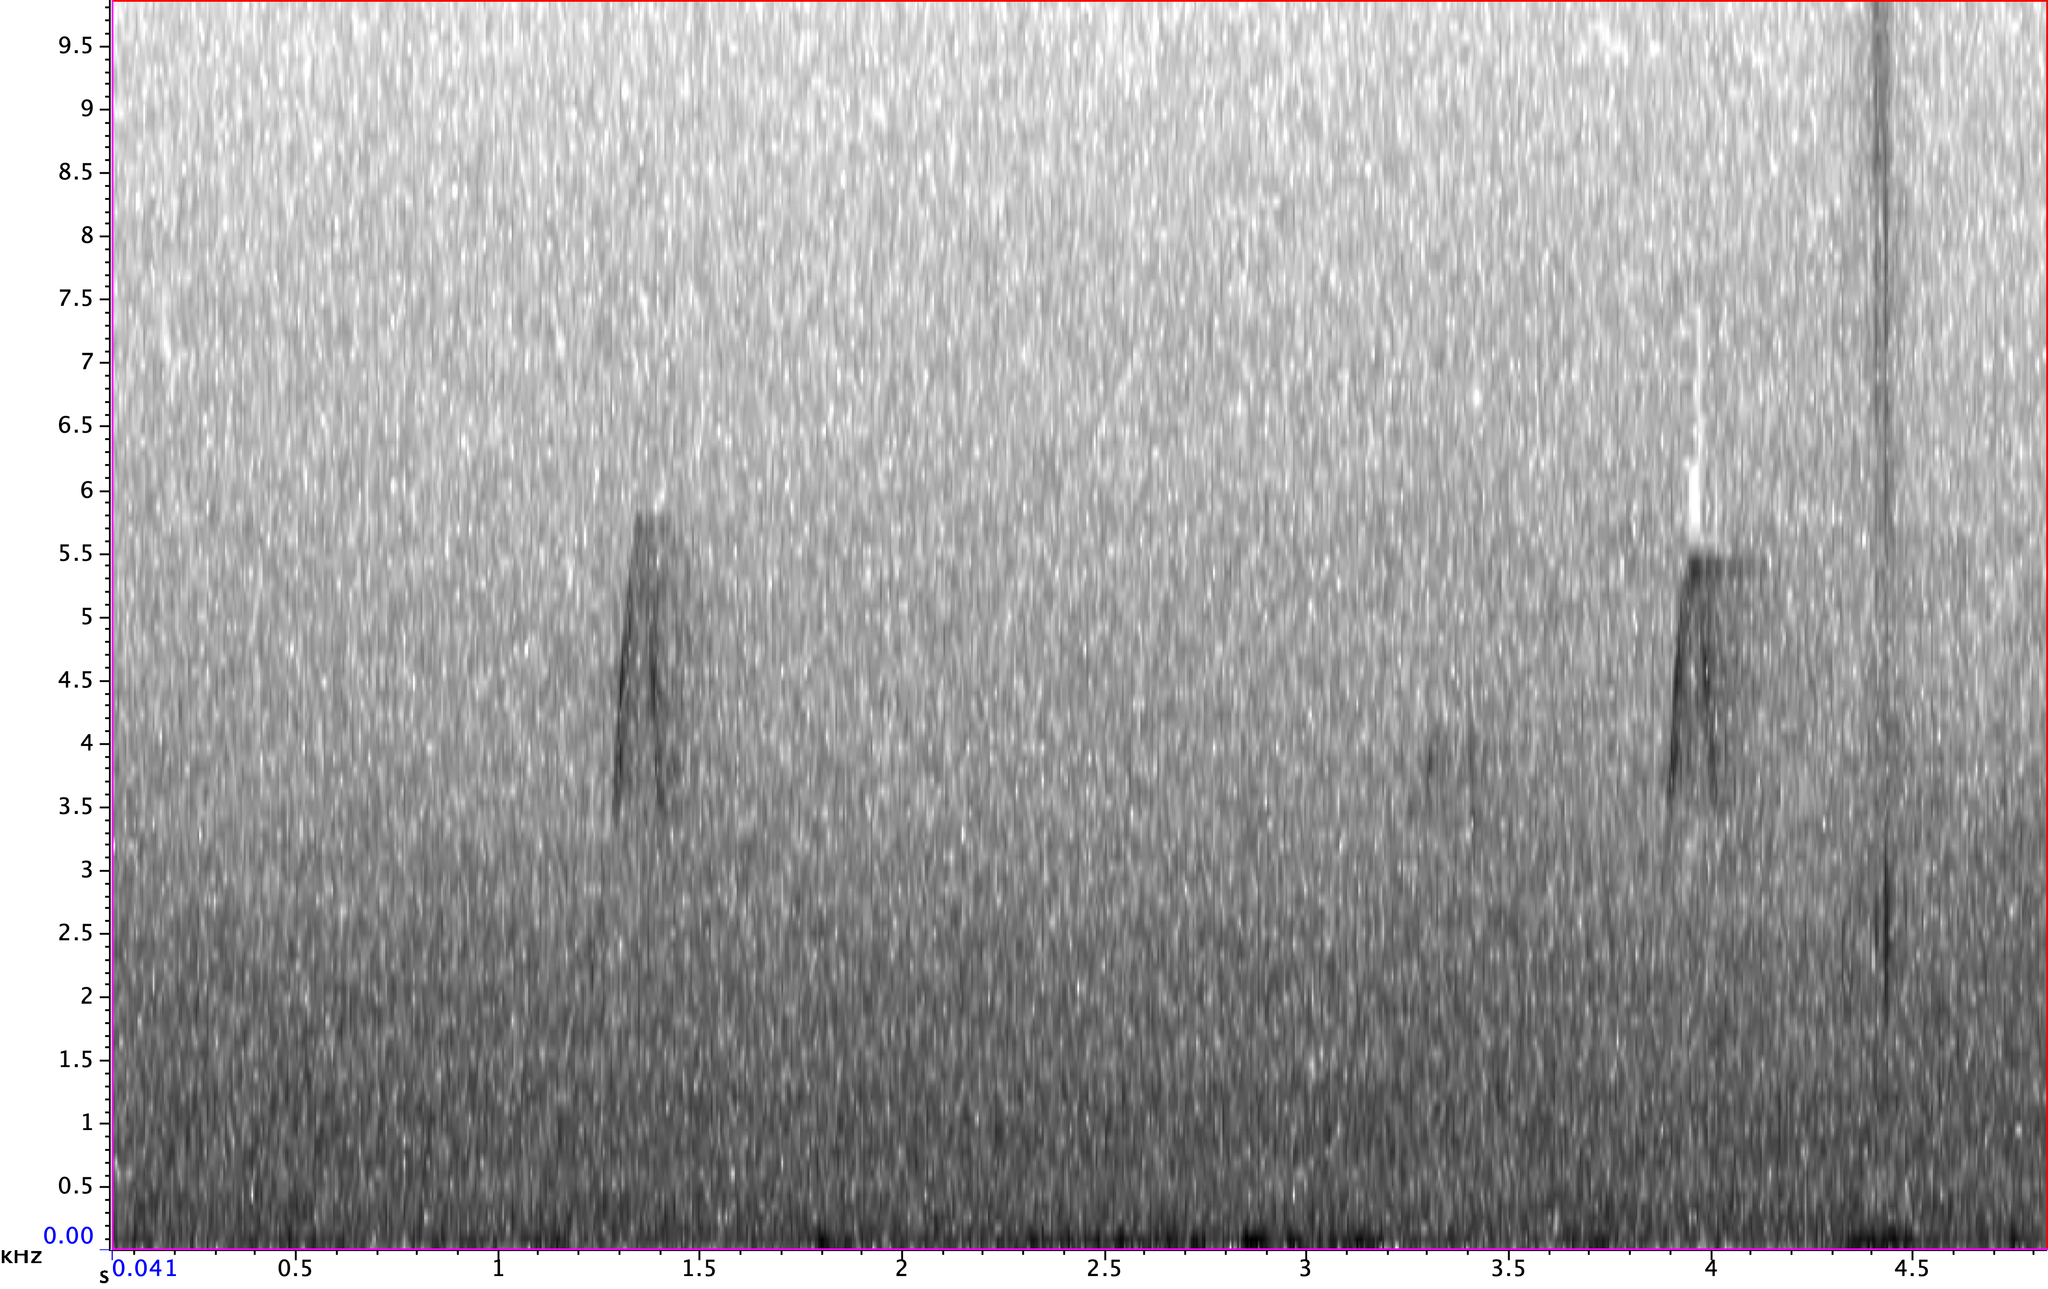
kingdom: Animalia
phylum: Chordata
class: Aves
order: Passeriformes
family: Tyrannidae
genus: Empidonax
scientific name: Empidonax virescens
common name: Acadian flycatcher
